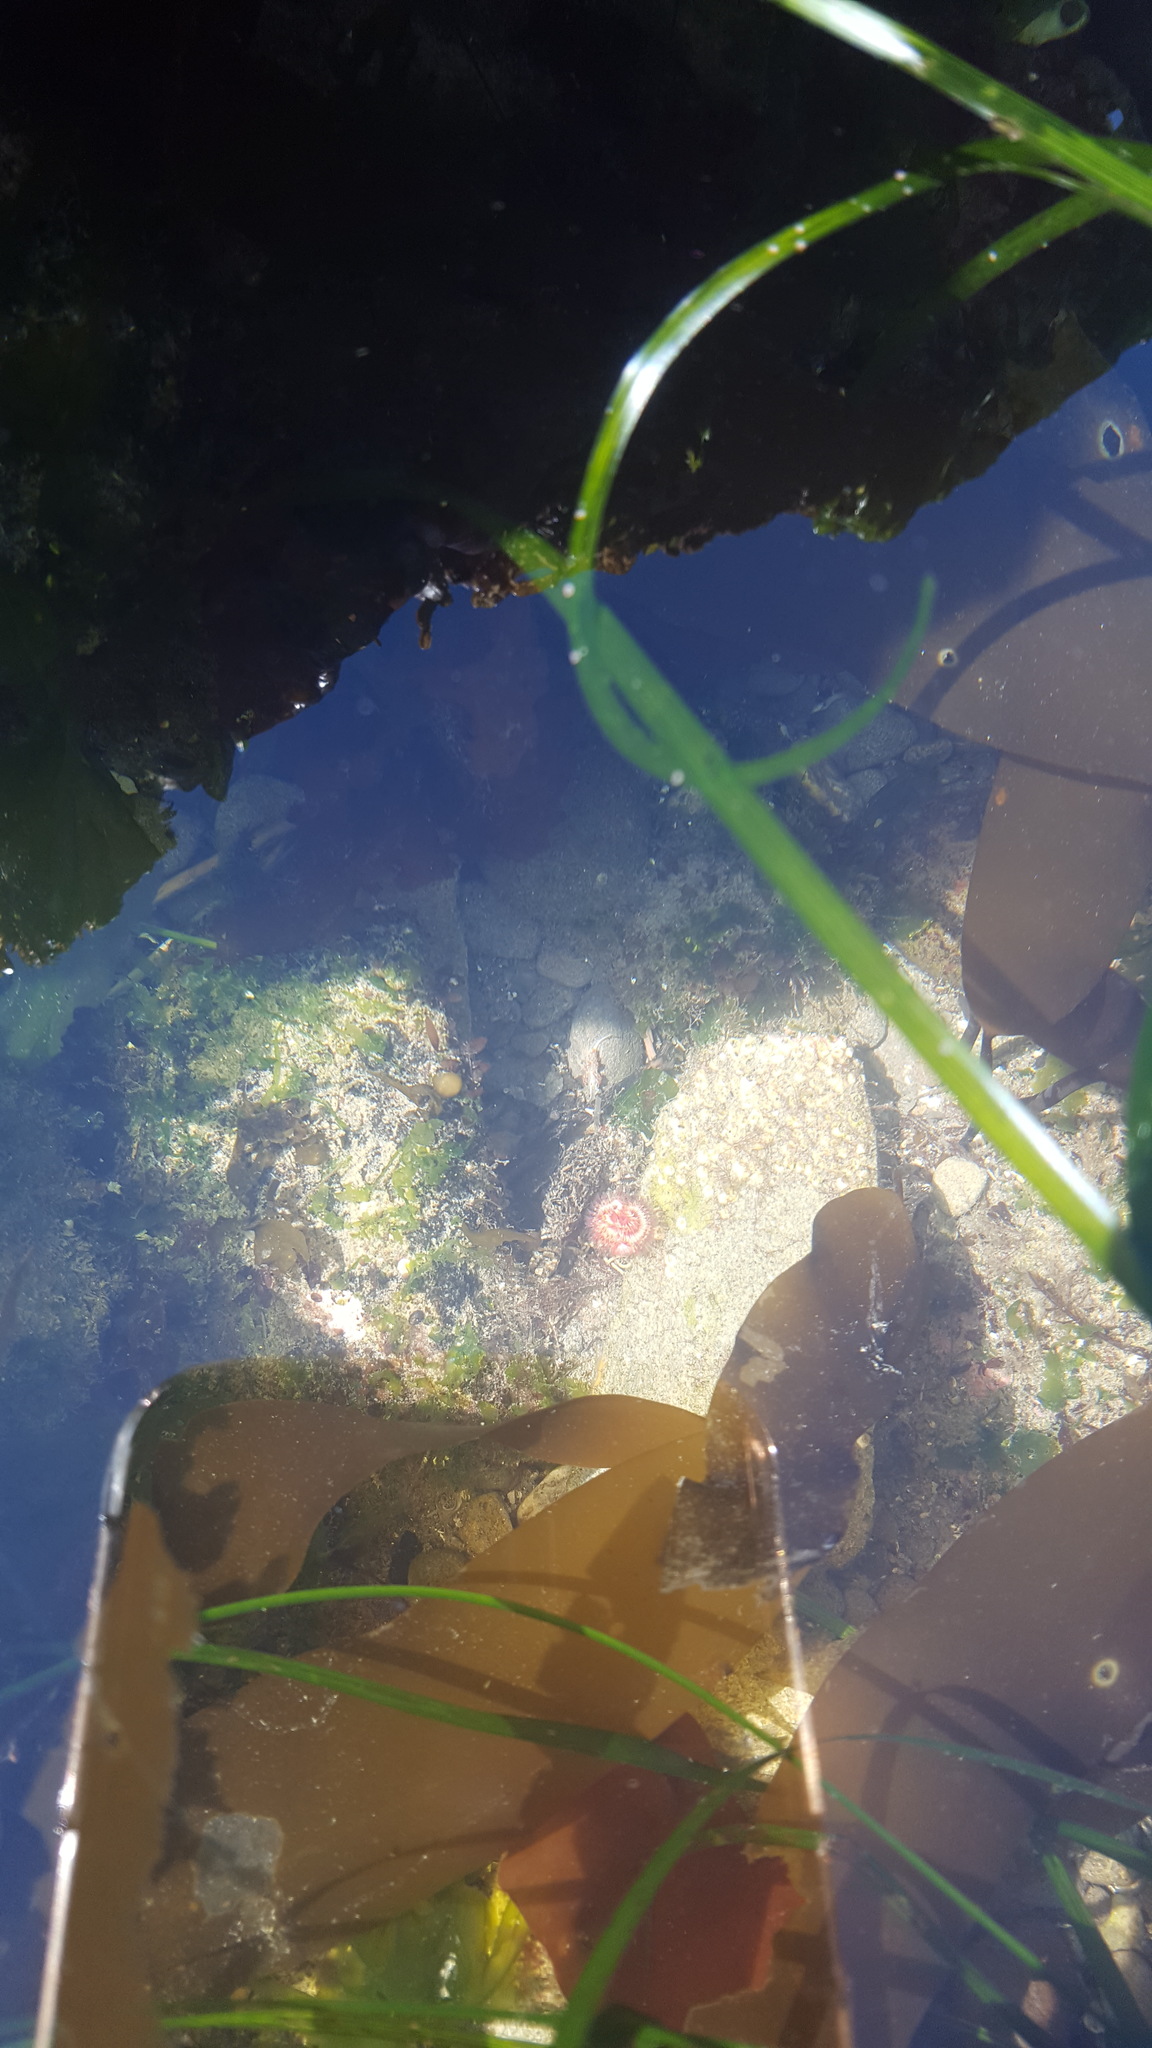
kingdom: Animalia
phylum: Annelida
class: Polychaeta
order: Sabellida
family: Serpulidae
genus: Serpula
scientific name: Serpula columbiana
